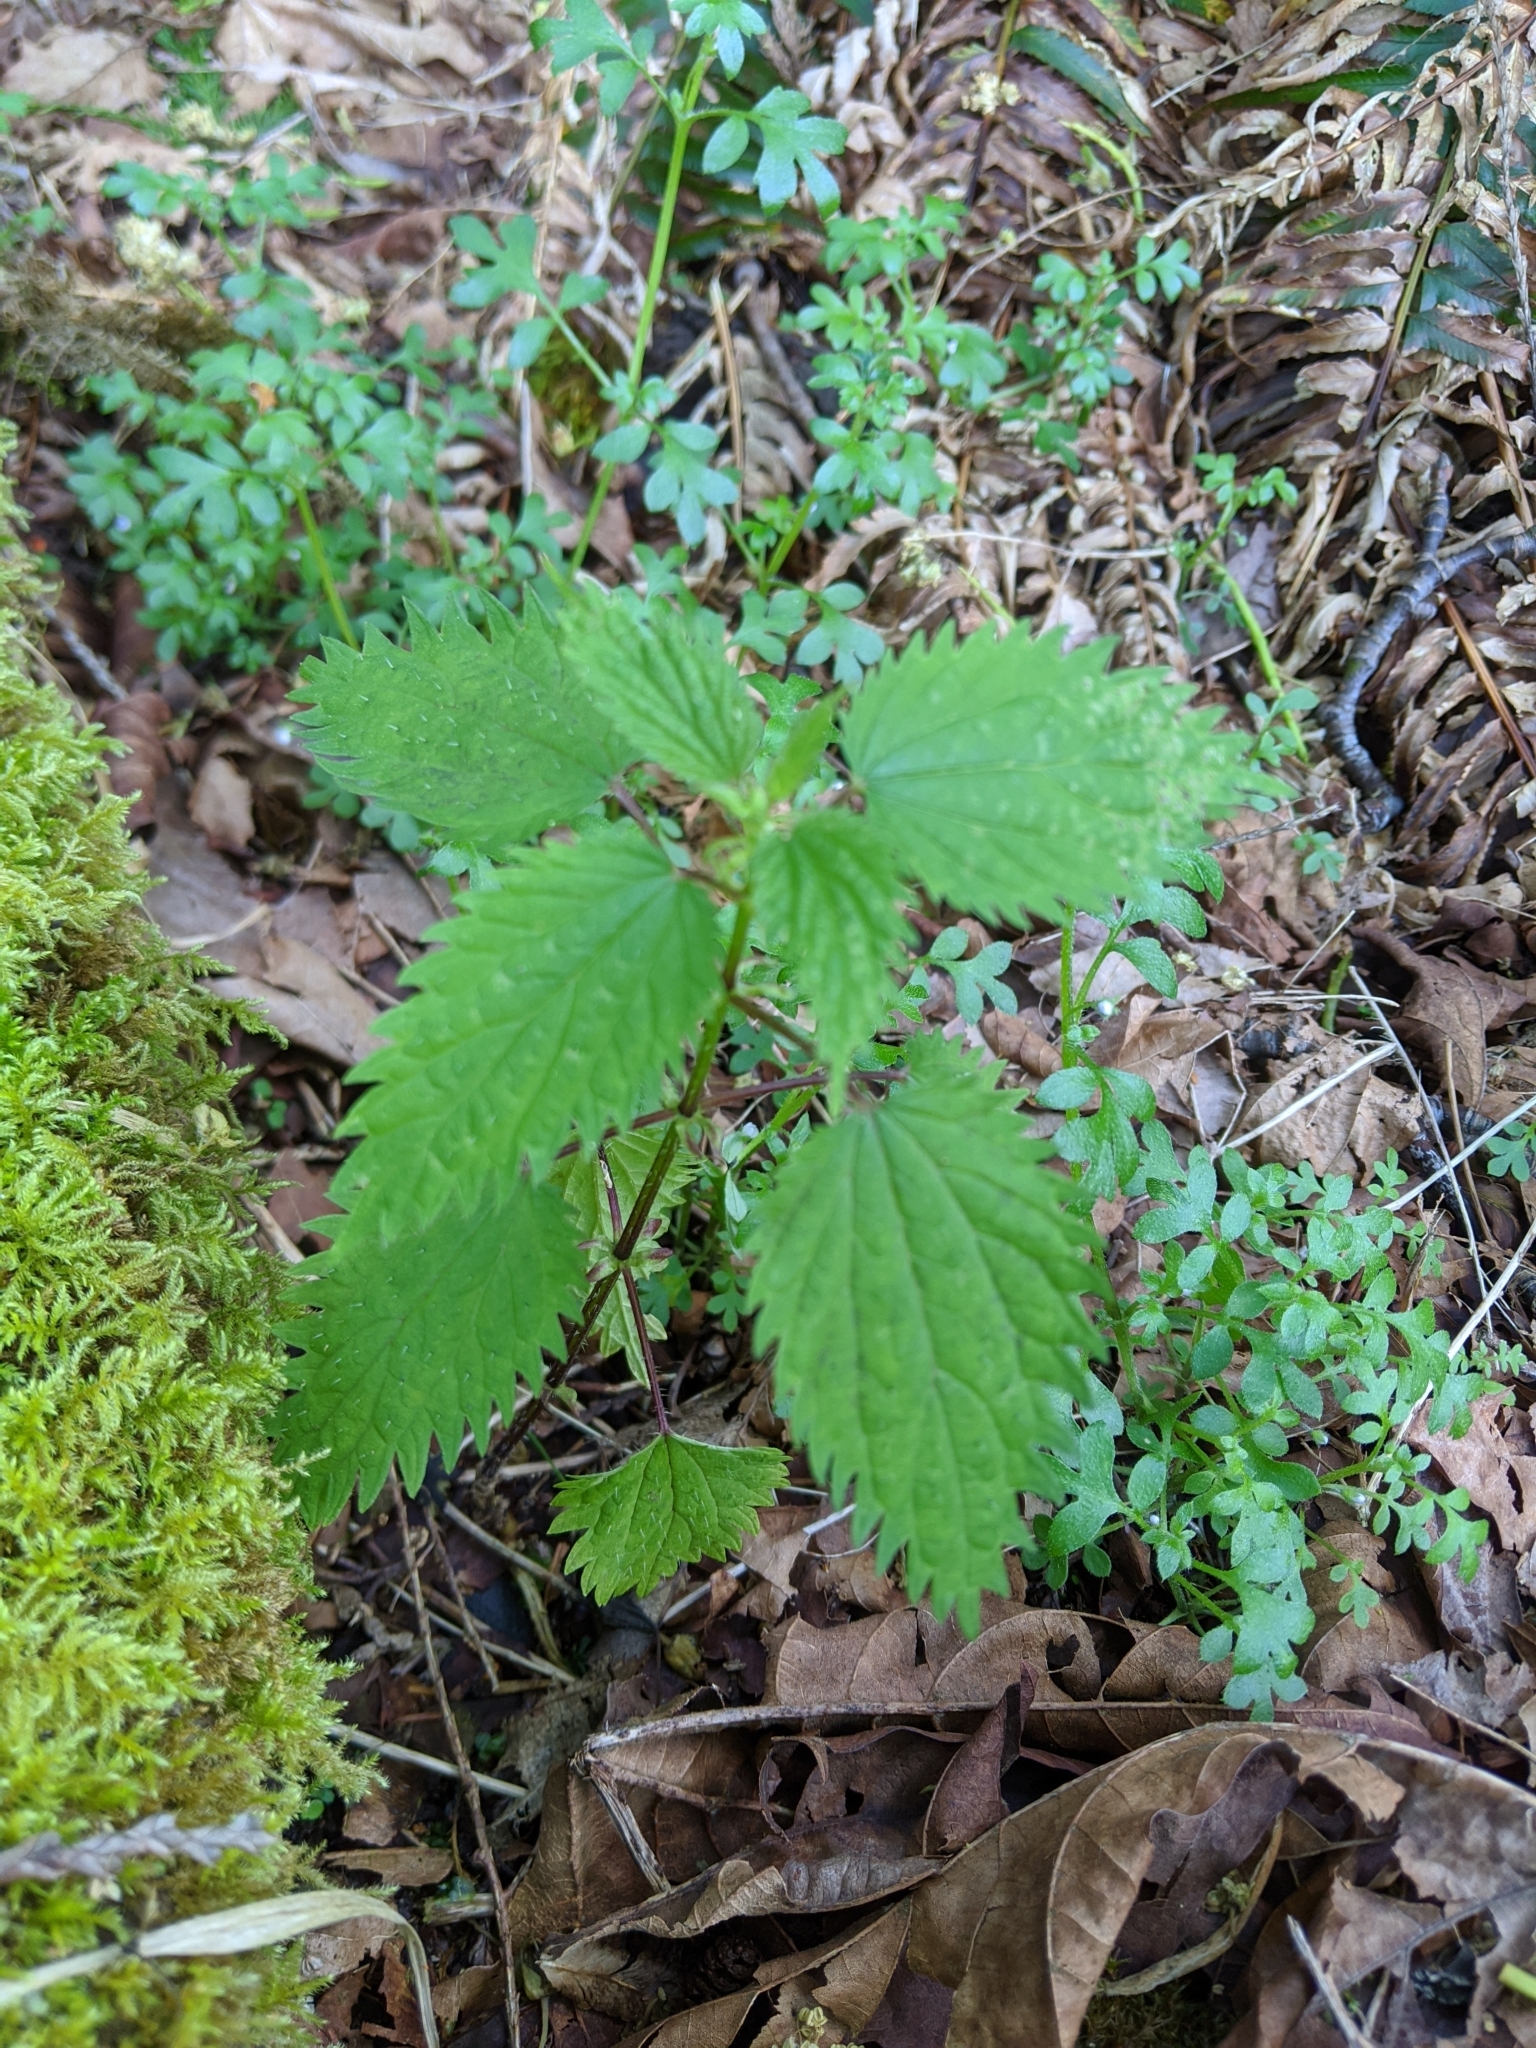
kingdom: Plantae
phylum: Tracheophyta
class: Magnoliopsida
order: Rosales
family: Urticaceae
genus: Urtica
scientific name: Urtica dioica
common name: Common nettle
